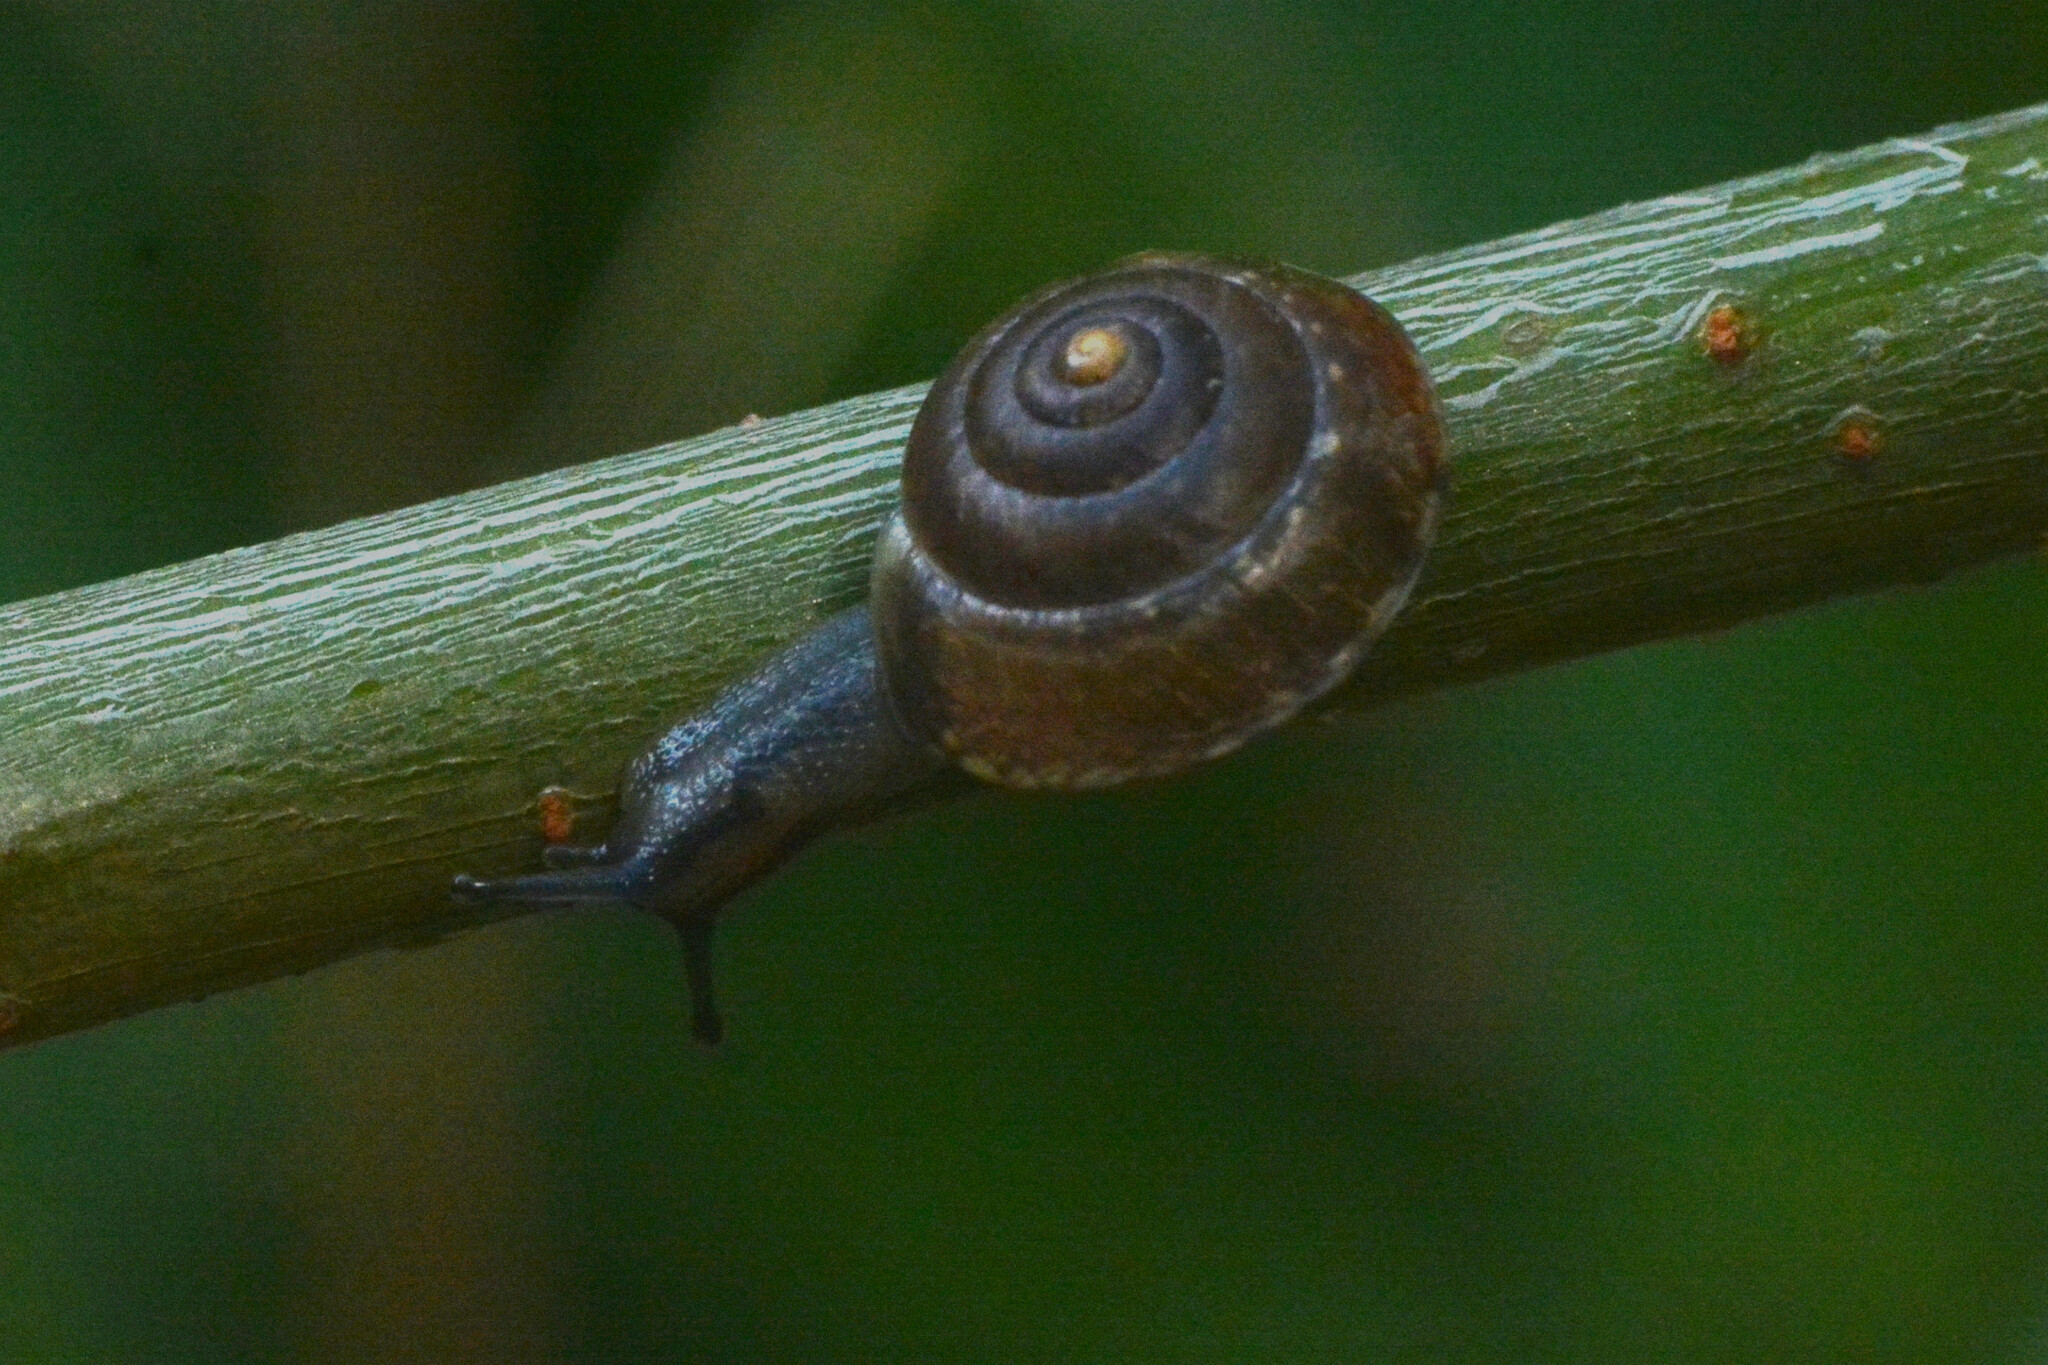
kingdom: Animalia
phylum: Mollusca
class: Gastropoda
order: Stylommatophora
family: Hygromiidae
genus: Hygromia
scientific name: Hygromia cinctella
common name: Girdled snail
